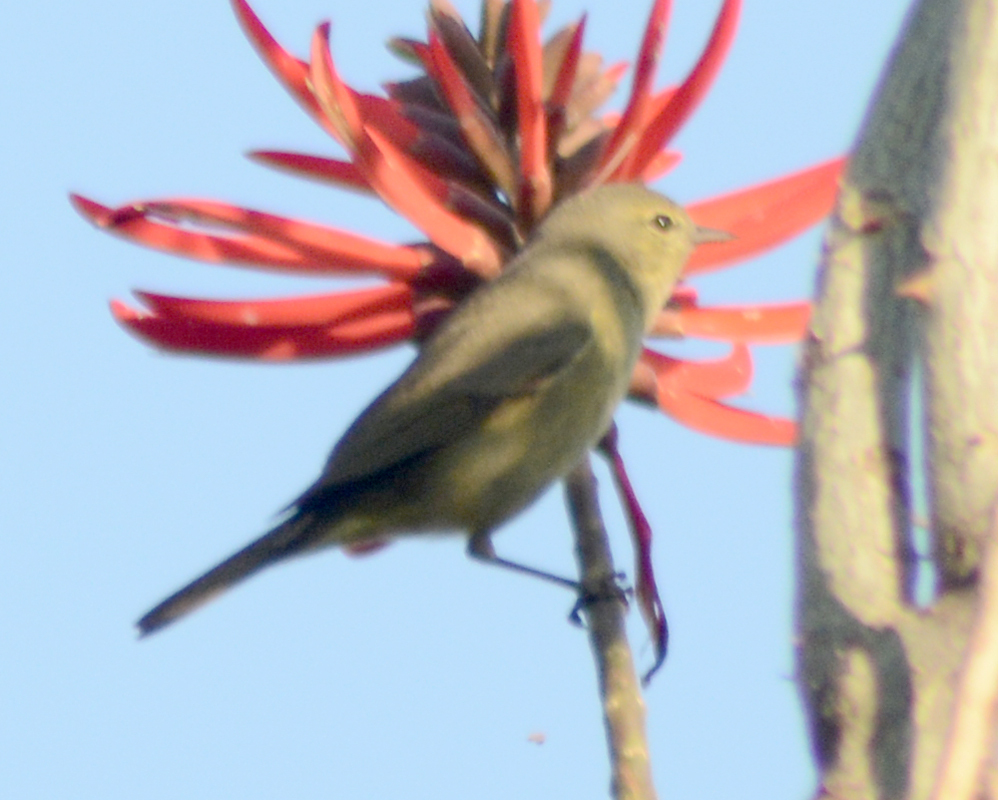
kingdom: Animalia
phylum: Chordata
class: Aves
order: Passeriformes
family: Parulidae
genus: Leiothlypis
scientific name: Leiothlypis celata
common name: Orange-crowned warbler
